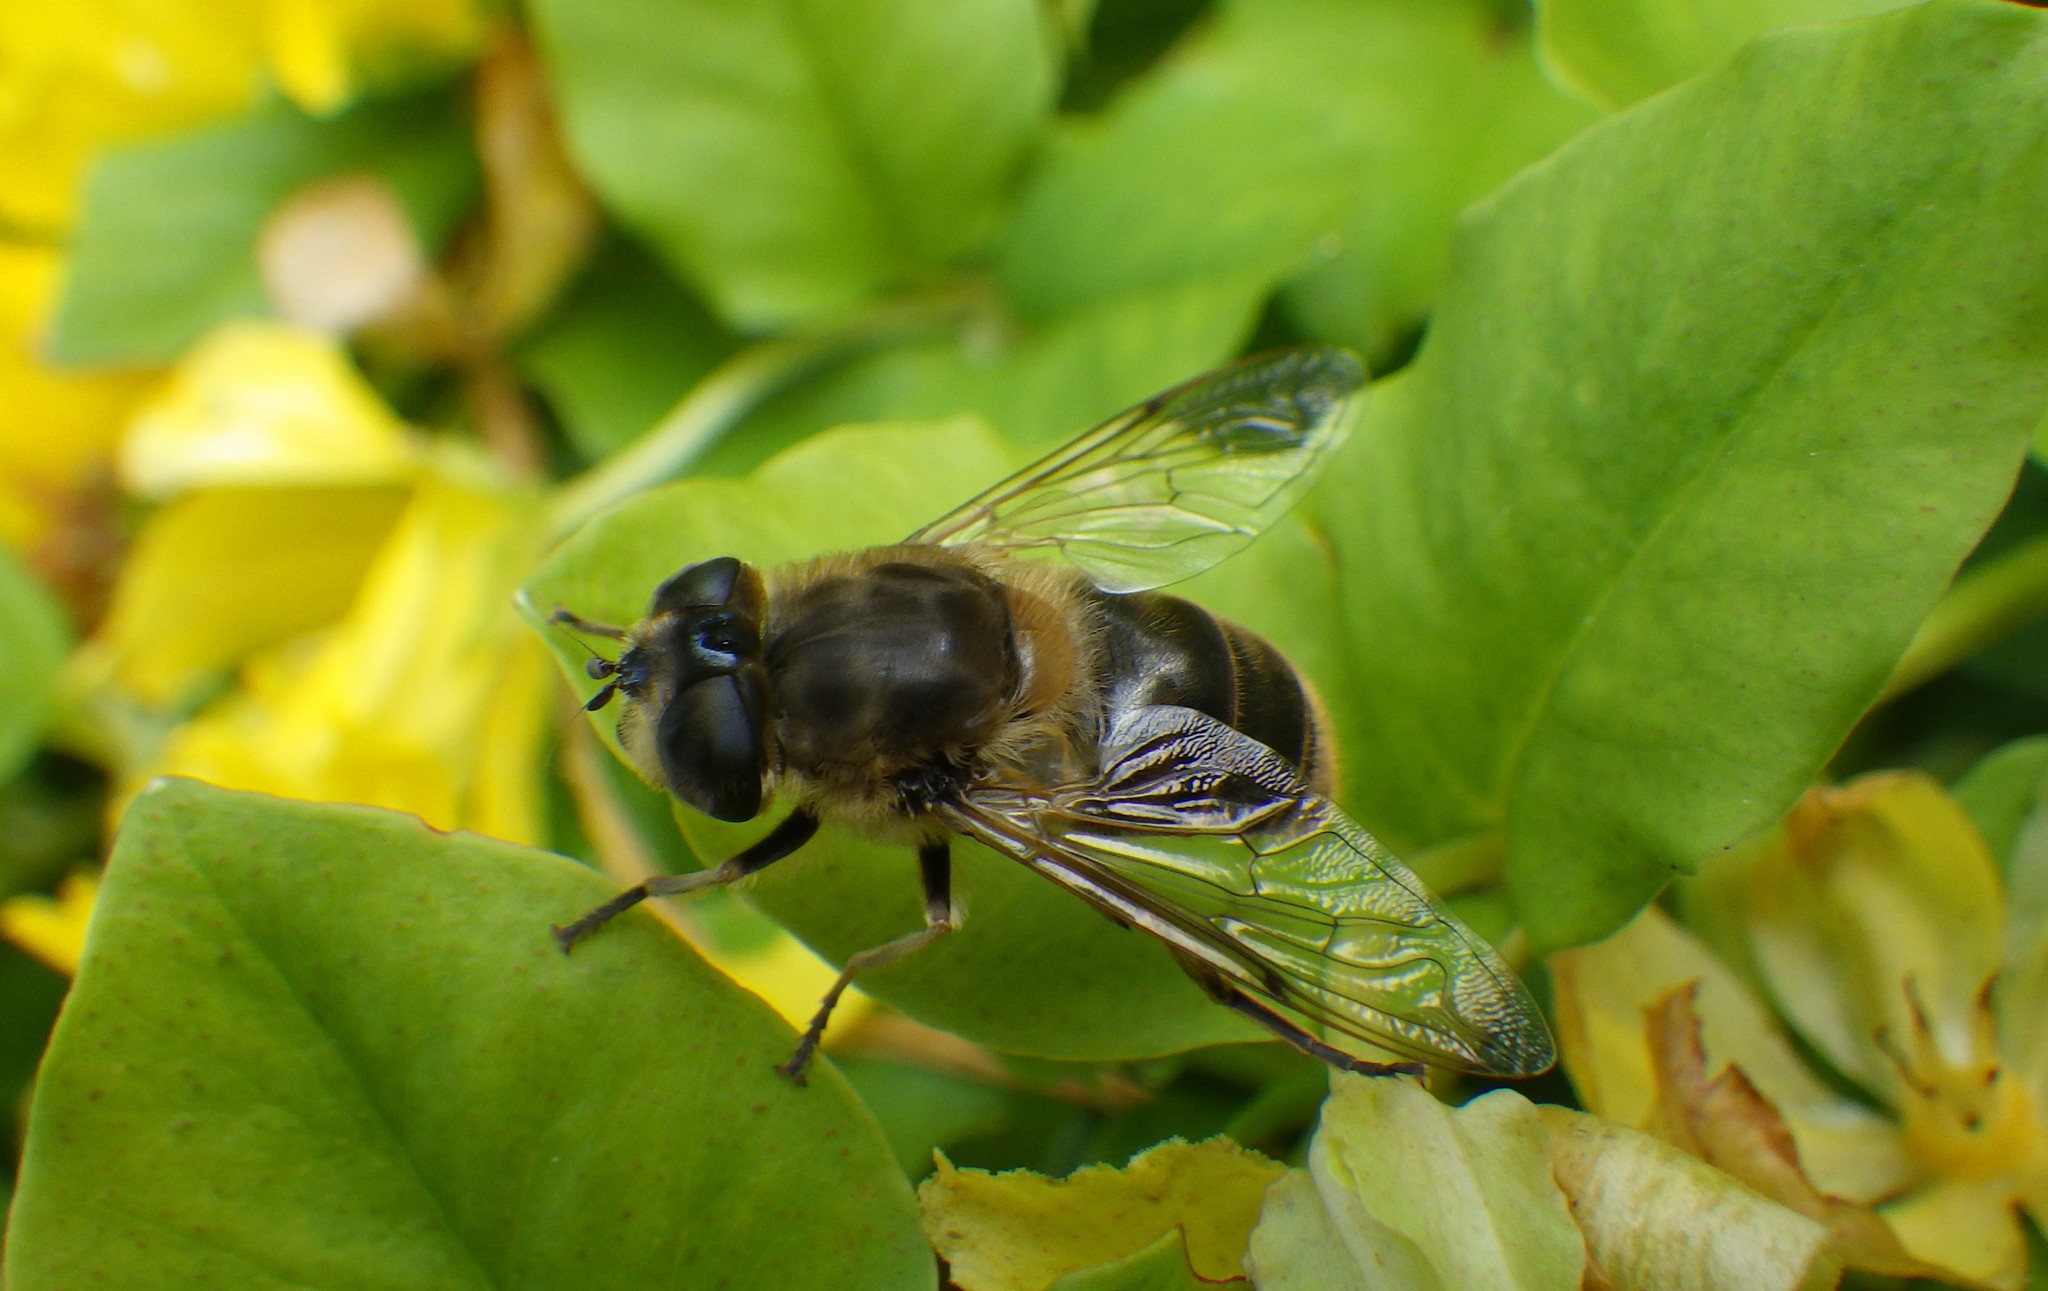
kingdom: Animalia
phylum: Arthropoda
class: Insecta
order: Diptera
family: Syrphidae
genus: Eristalis
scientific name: Eristalis tenax
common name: Drone fly
